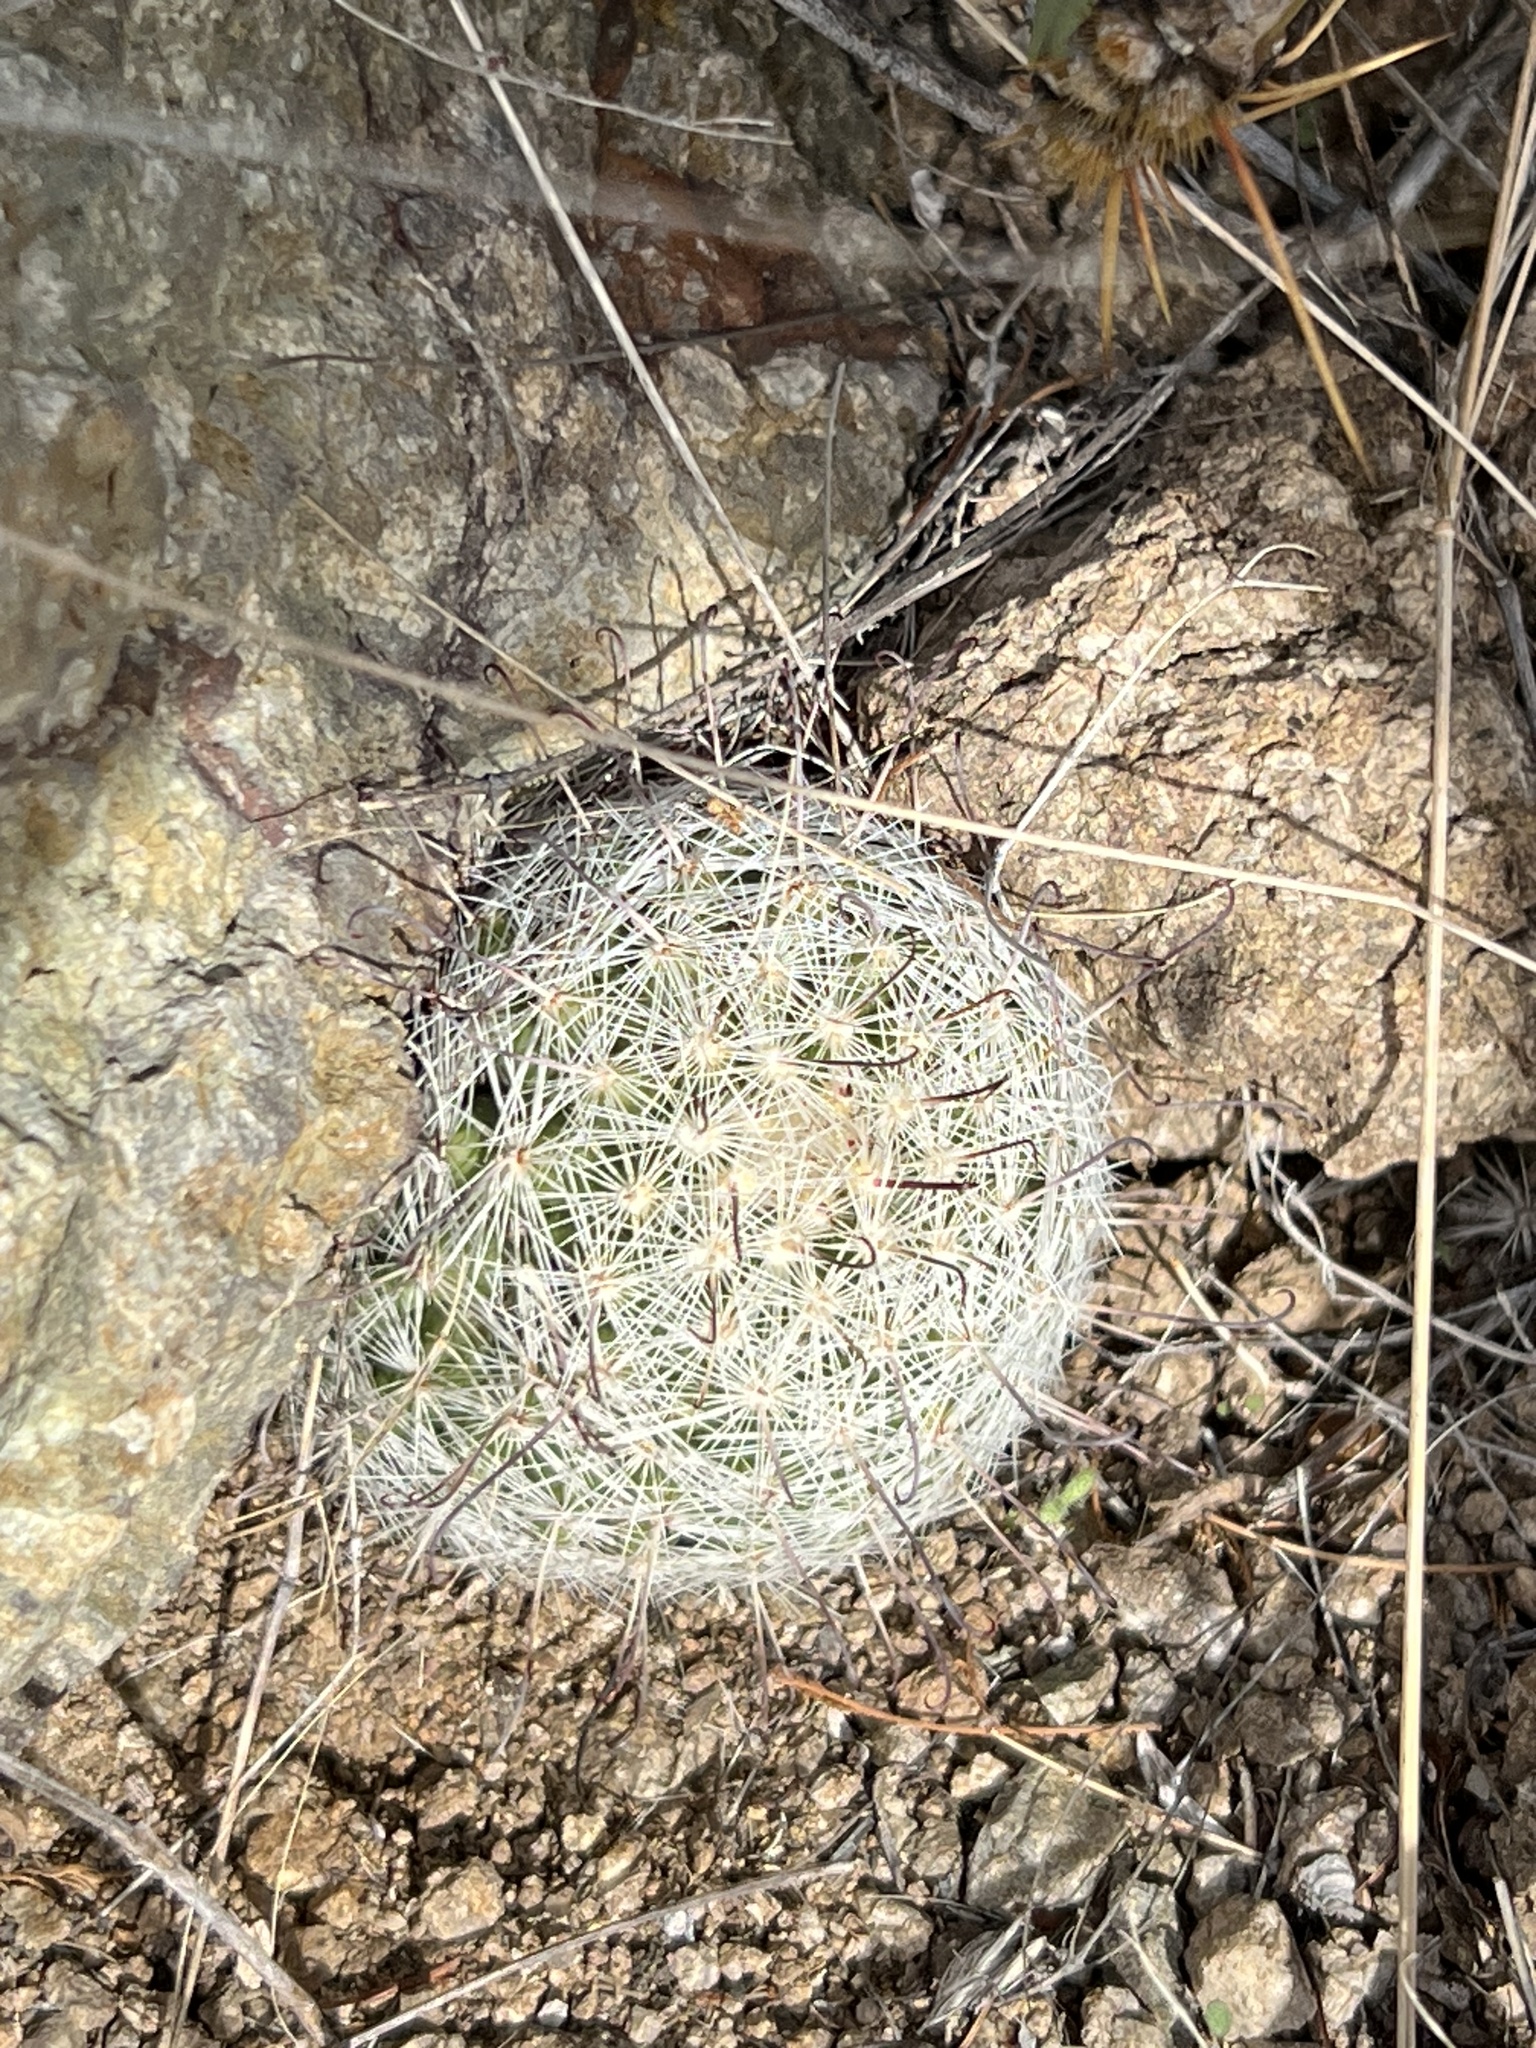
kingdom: Plantae
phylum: Tracheophyta
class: Magnoliopsida
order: Caryophyllales
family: Cactaceae
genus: Cochemiea
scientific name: Cochemiea grahamii
